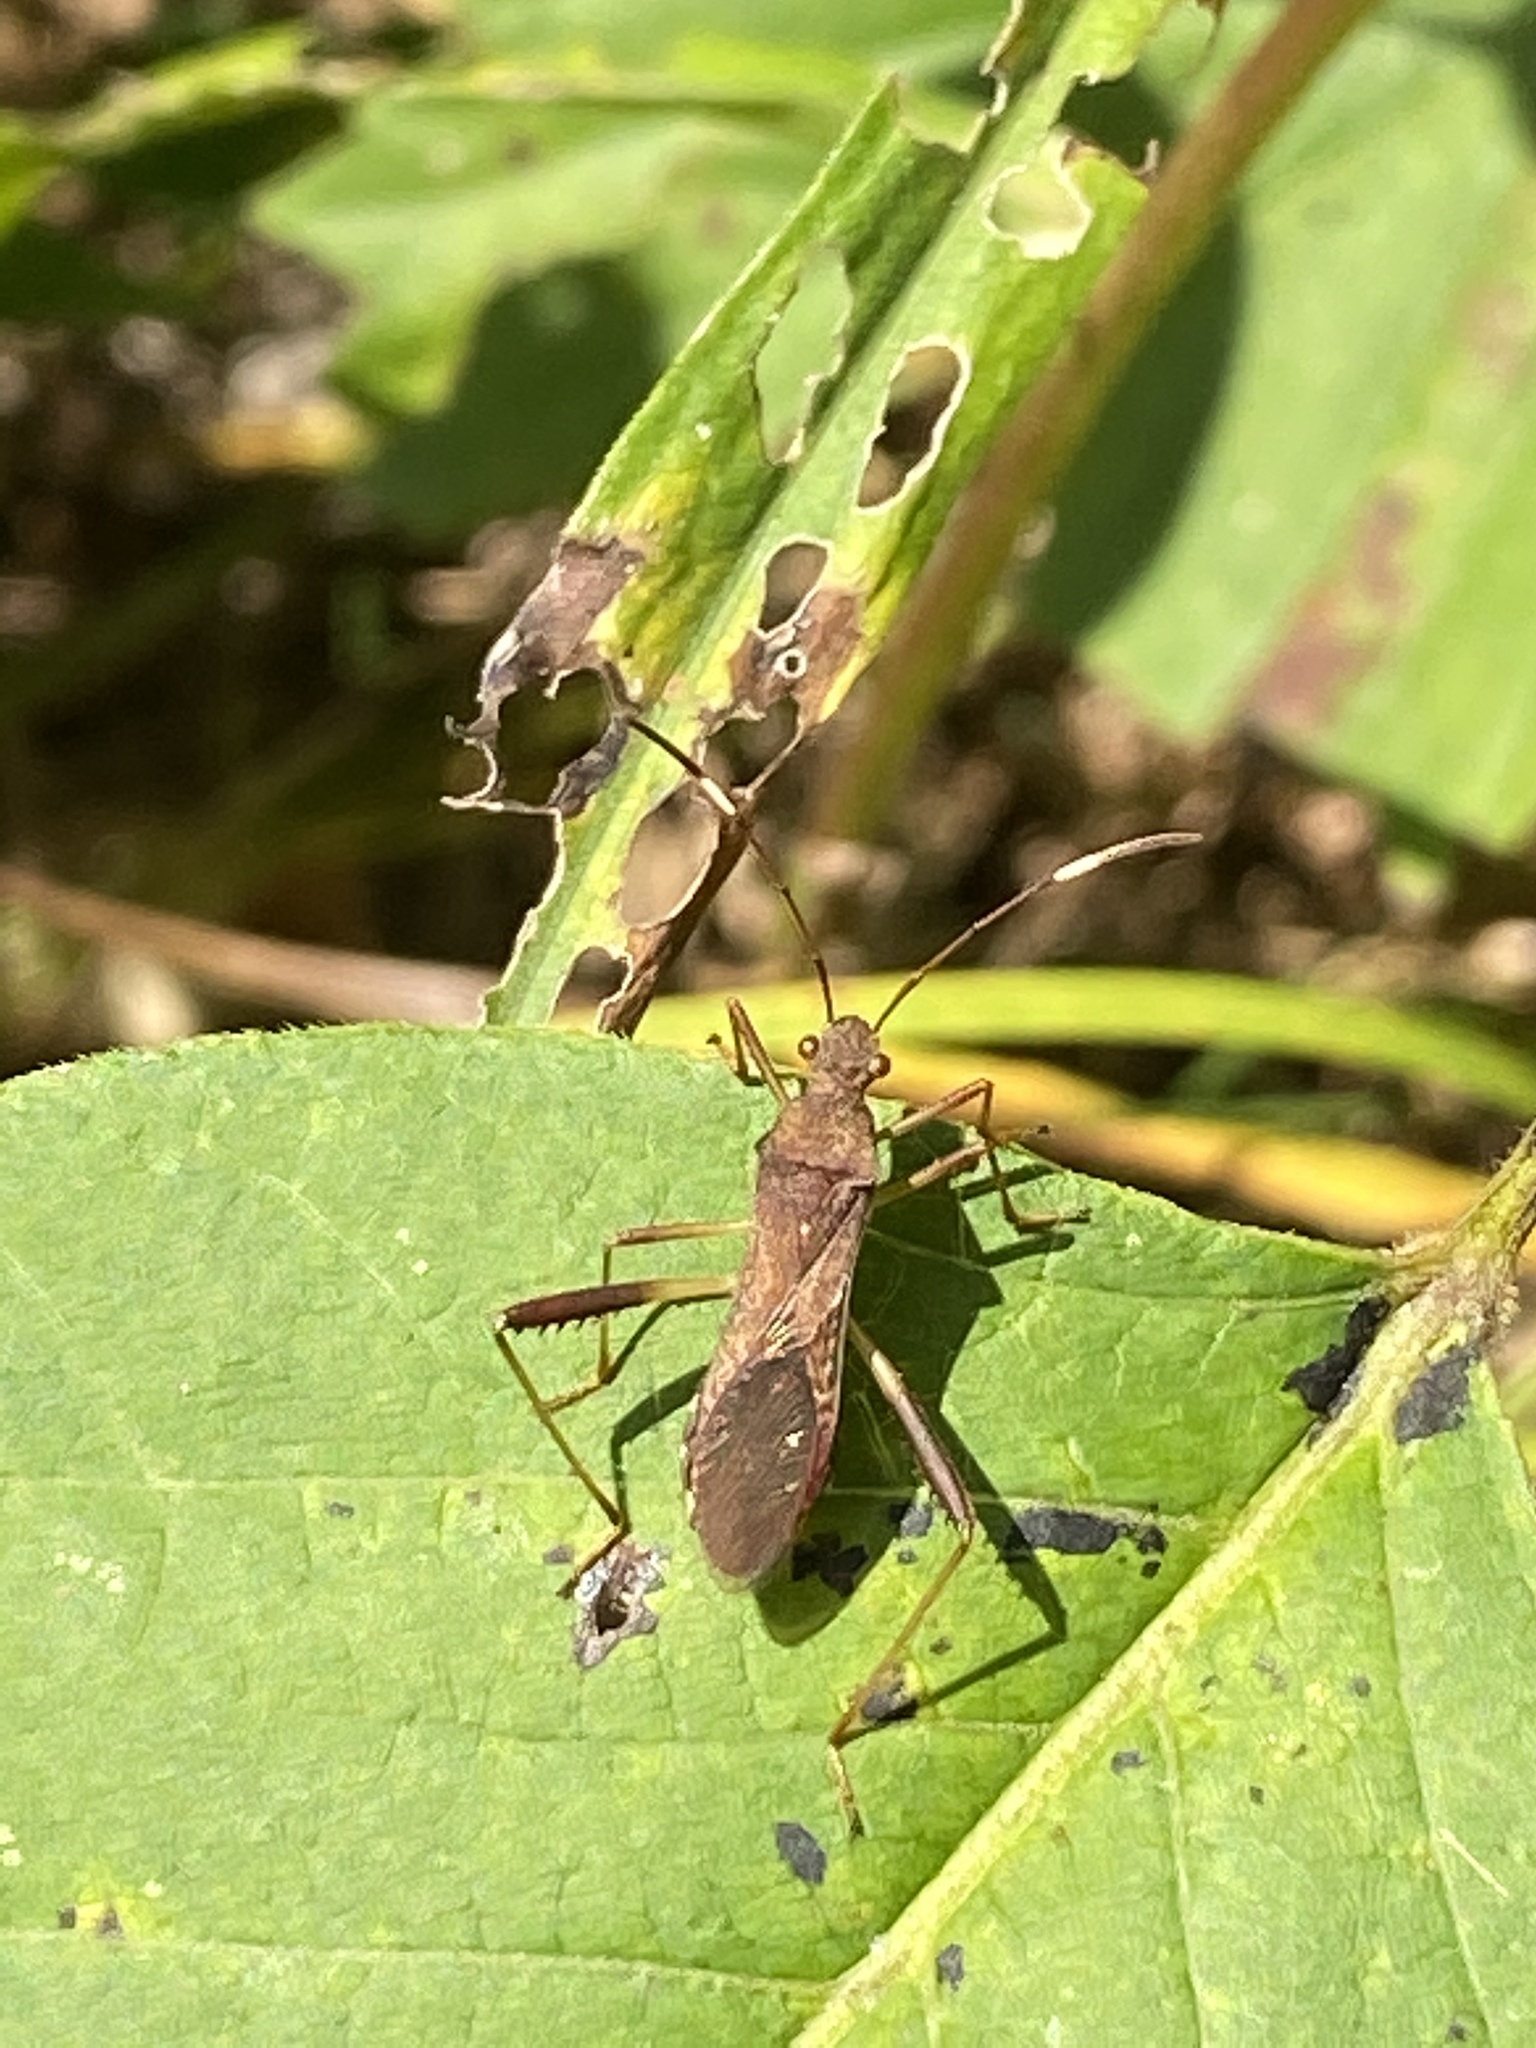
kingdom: Animalia
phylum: Arthropoda
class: Insecta
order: Hemiptera
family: Alydidae
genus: Megalotomus
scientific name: Megalotomus quinquespinosus
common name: Lupine bug
